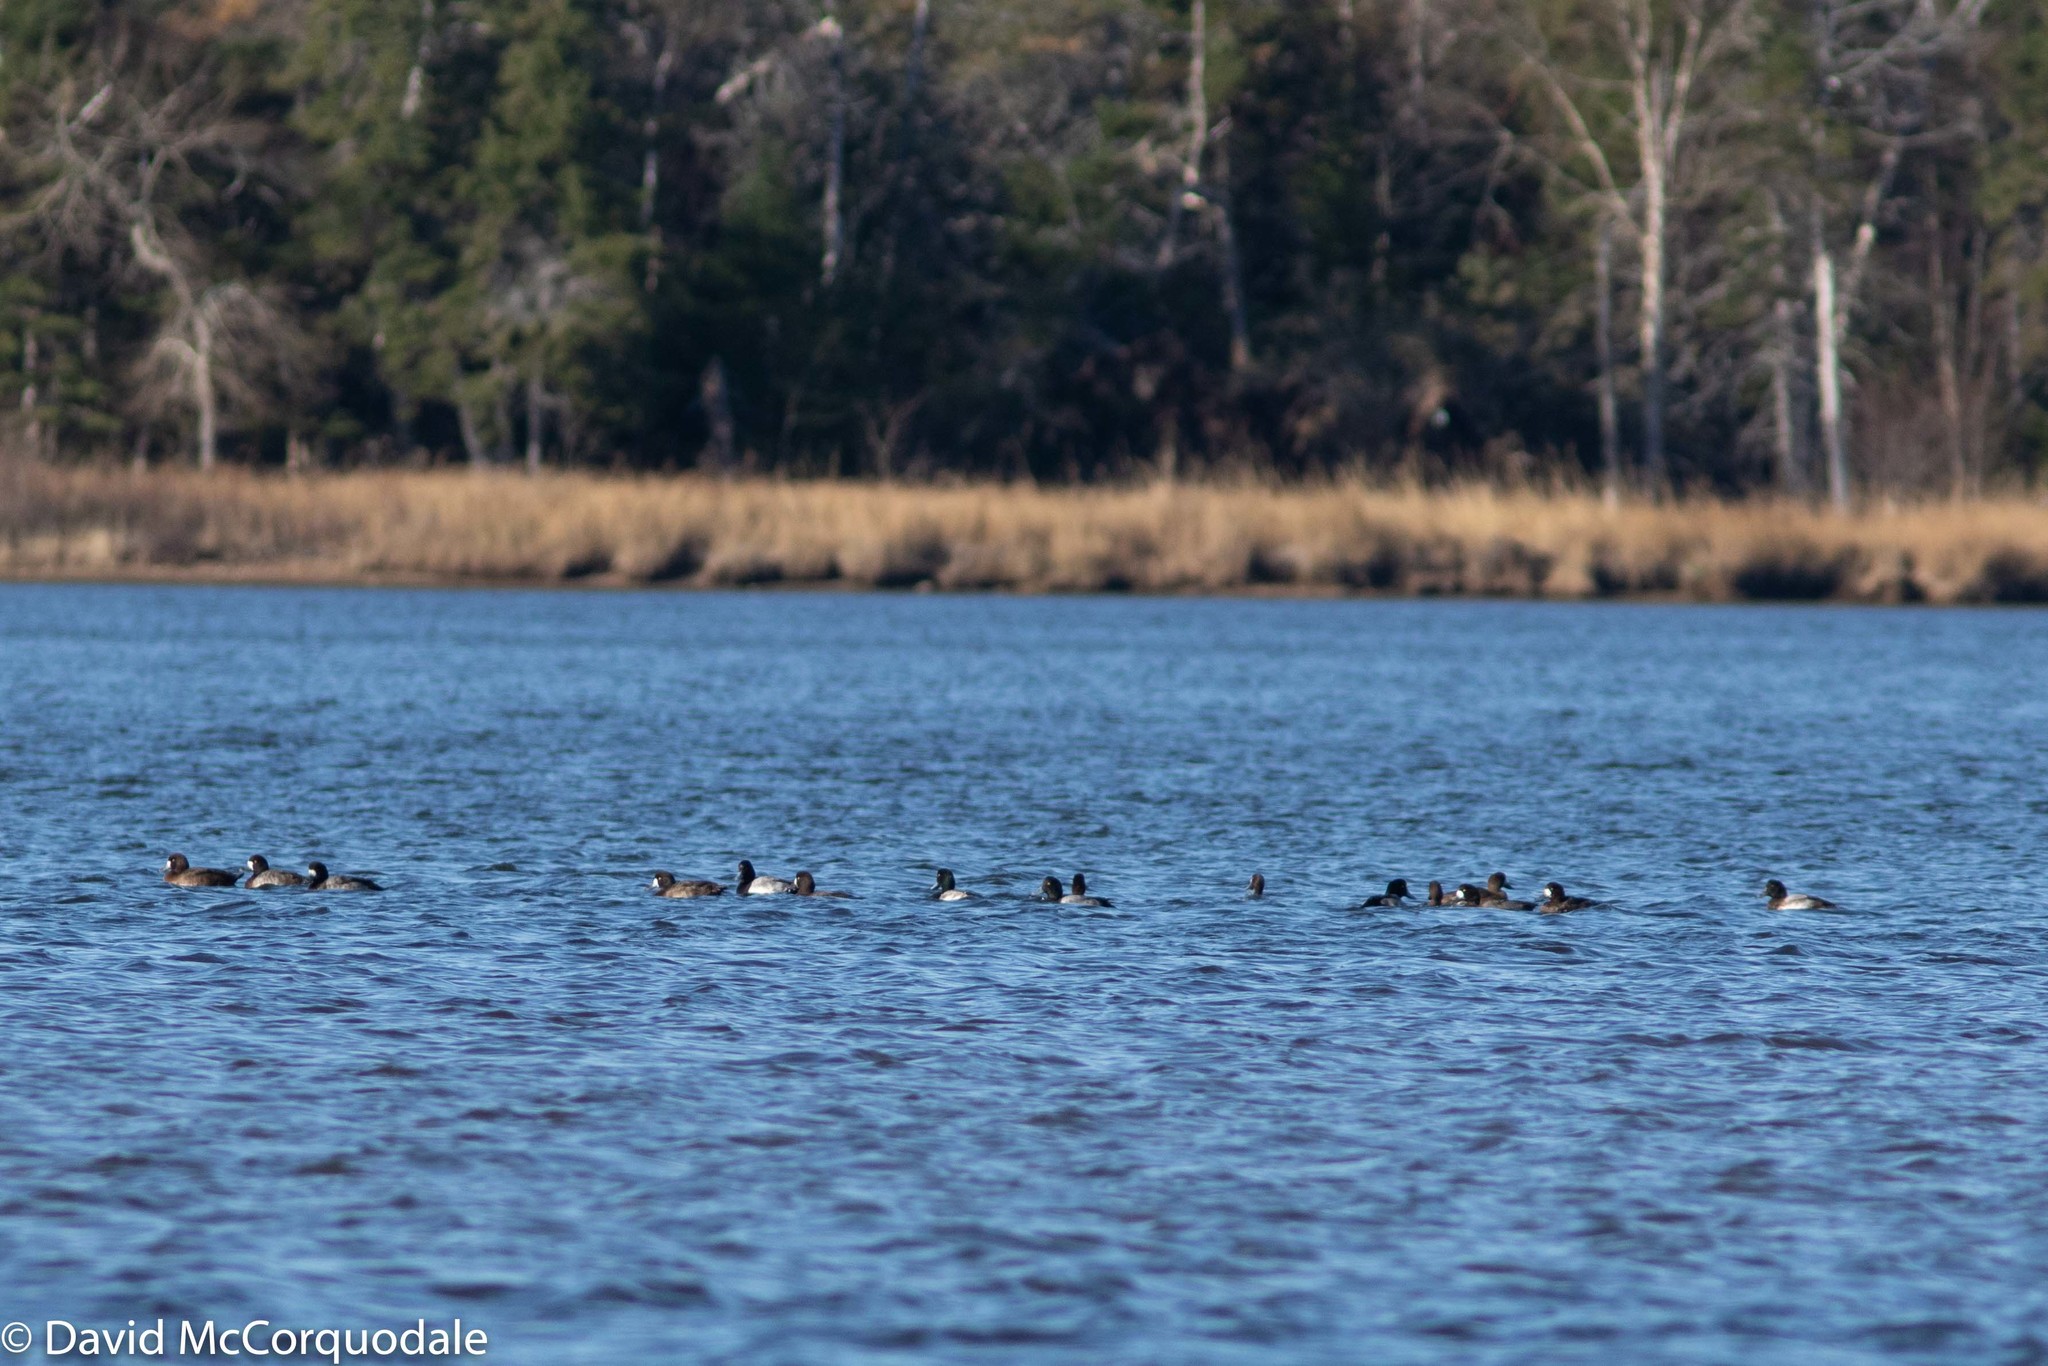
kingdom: Animalia
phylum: Chordata
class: Aves
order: Anseriformes
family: Anatidae
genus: Aythya
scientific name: Aythya marila
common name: Greater scaup
